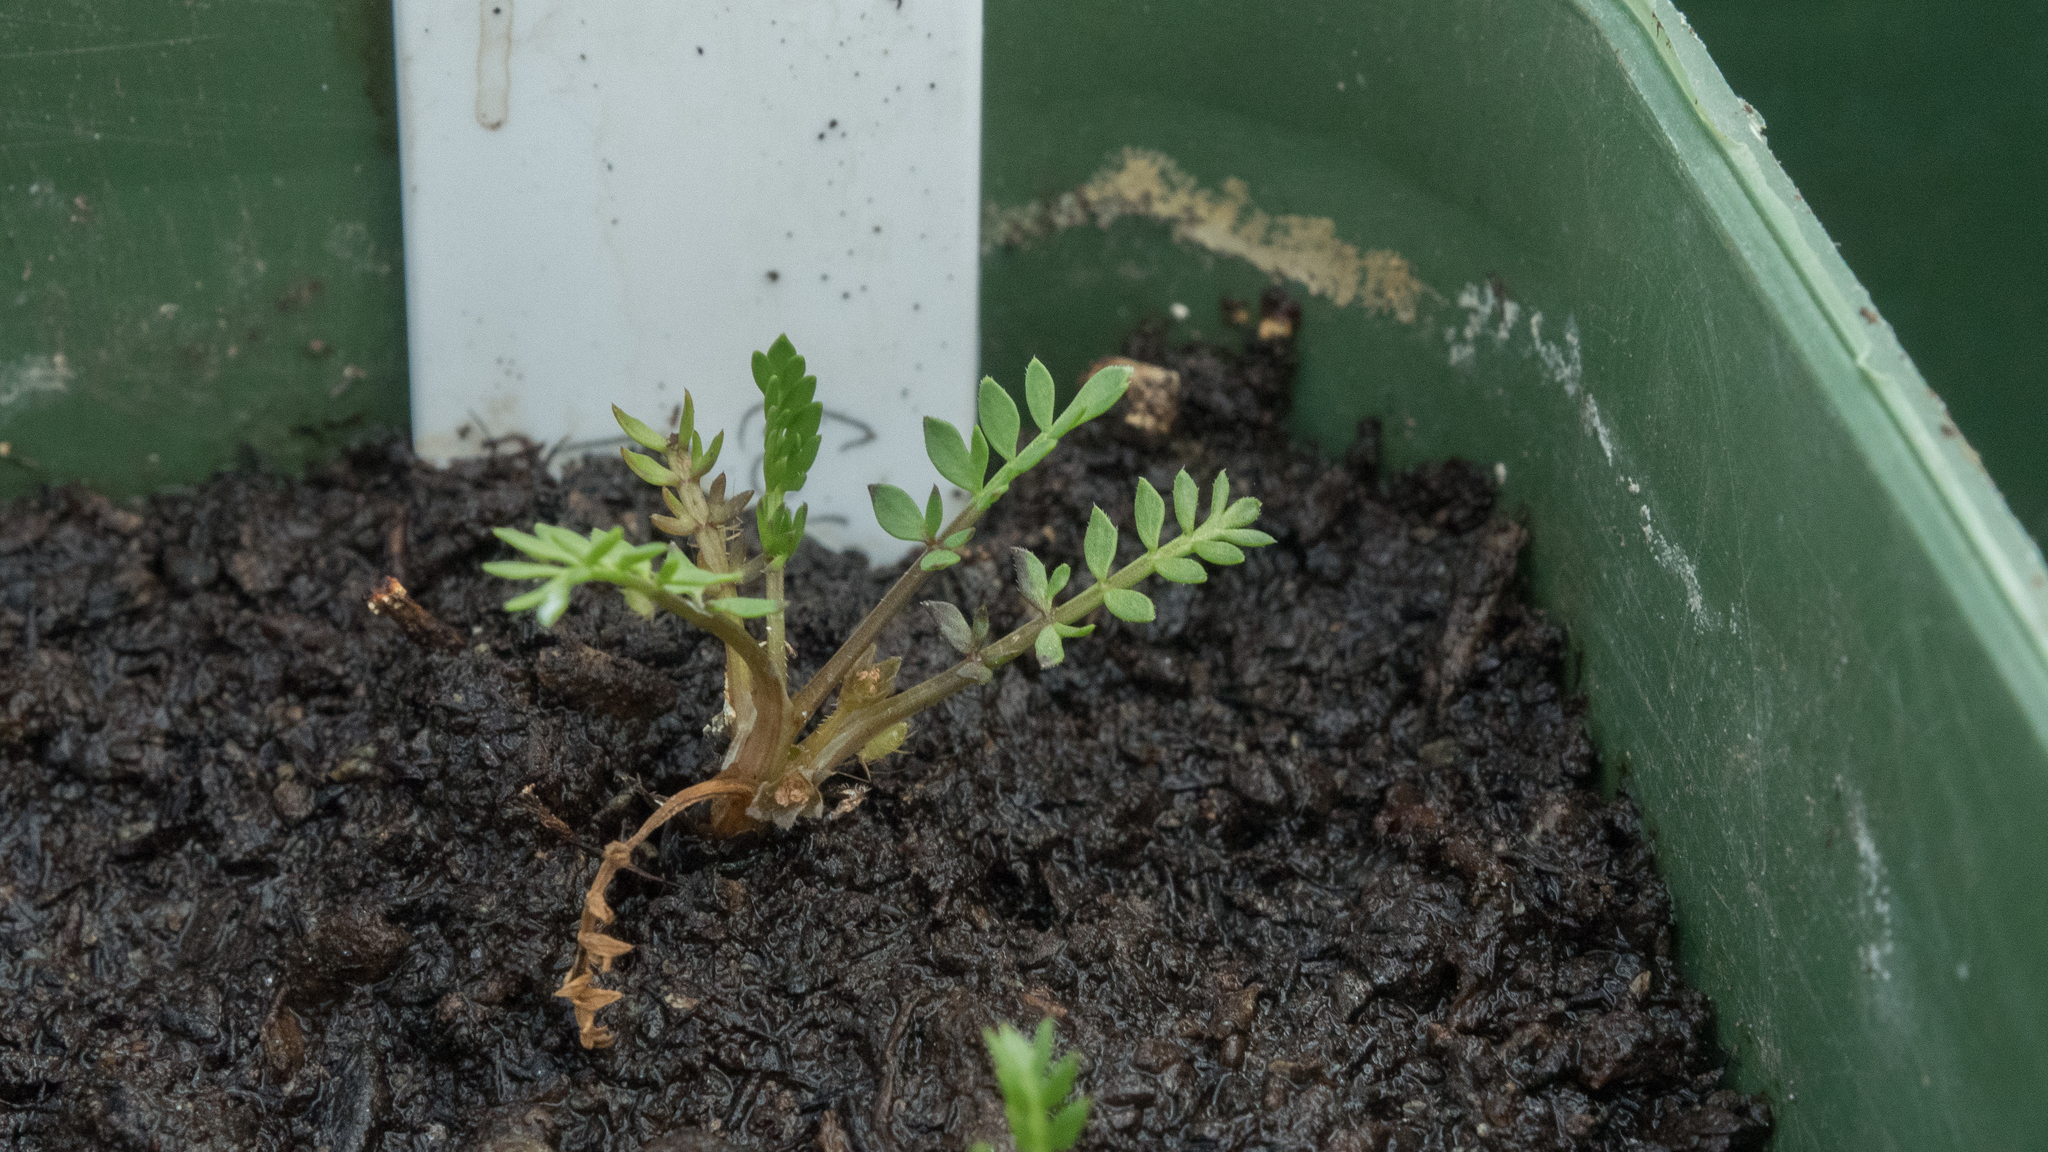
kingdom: Plantae
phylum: Tracheophyta
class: Magnoliopsida
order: Apiales
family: Apiaceae
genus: Chaerophyllum
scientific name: Chaerophyllum colensoi
